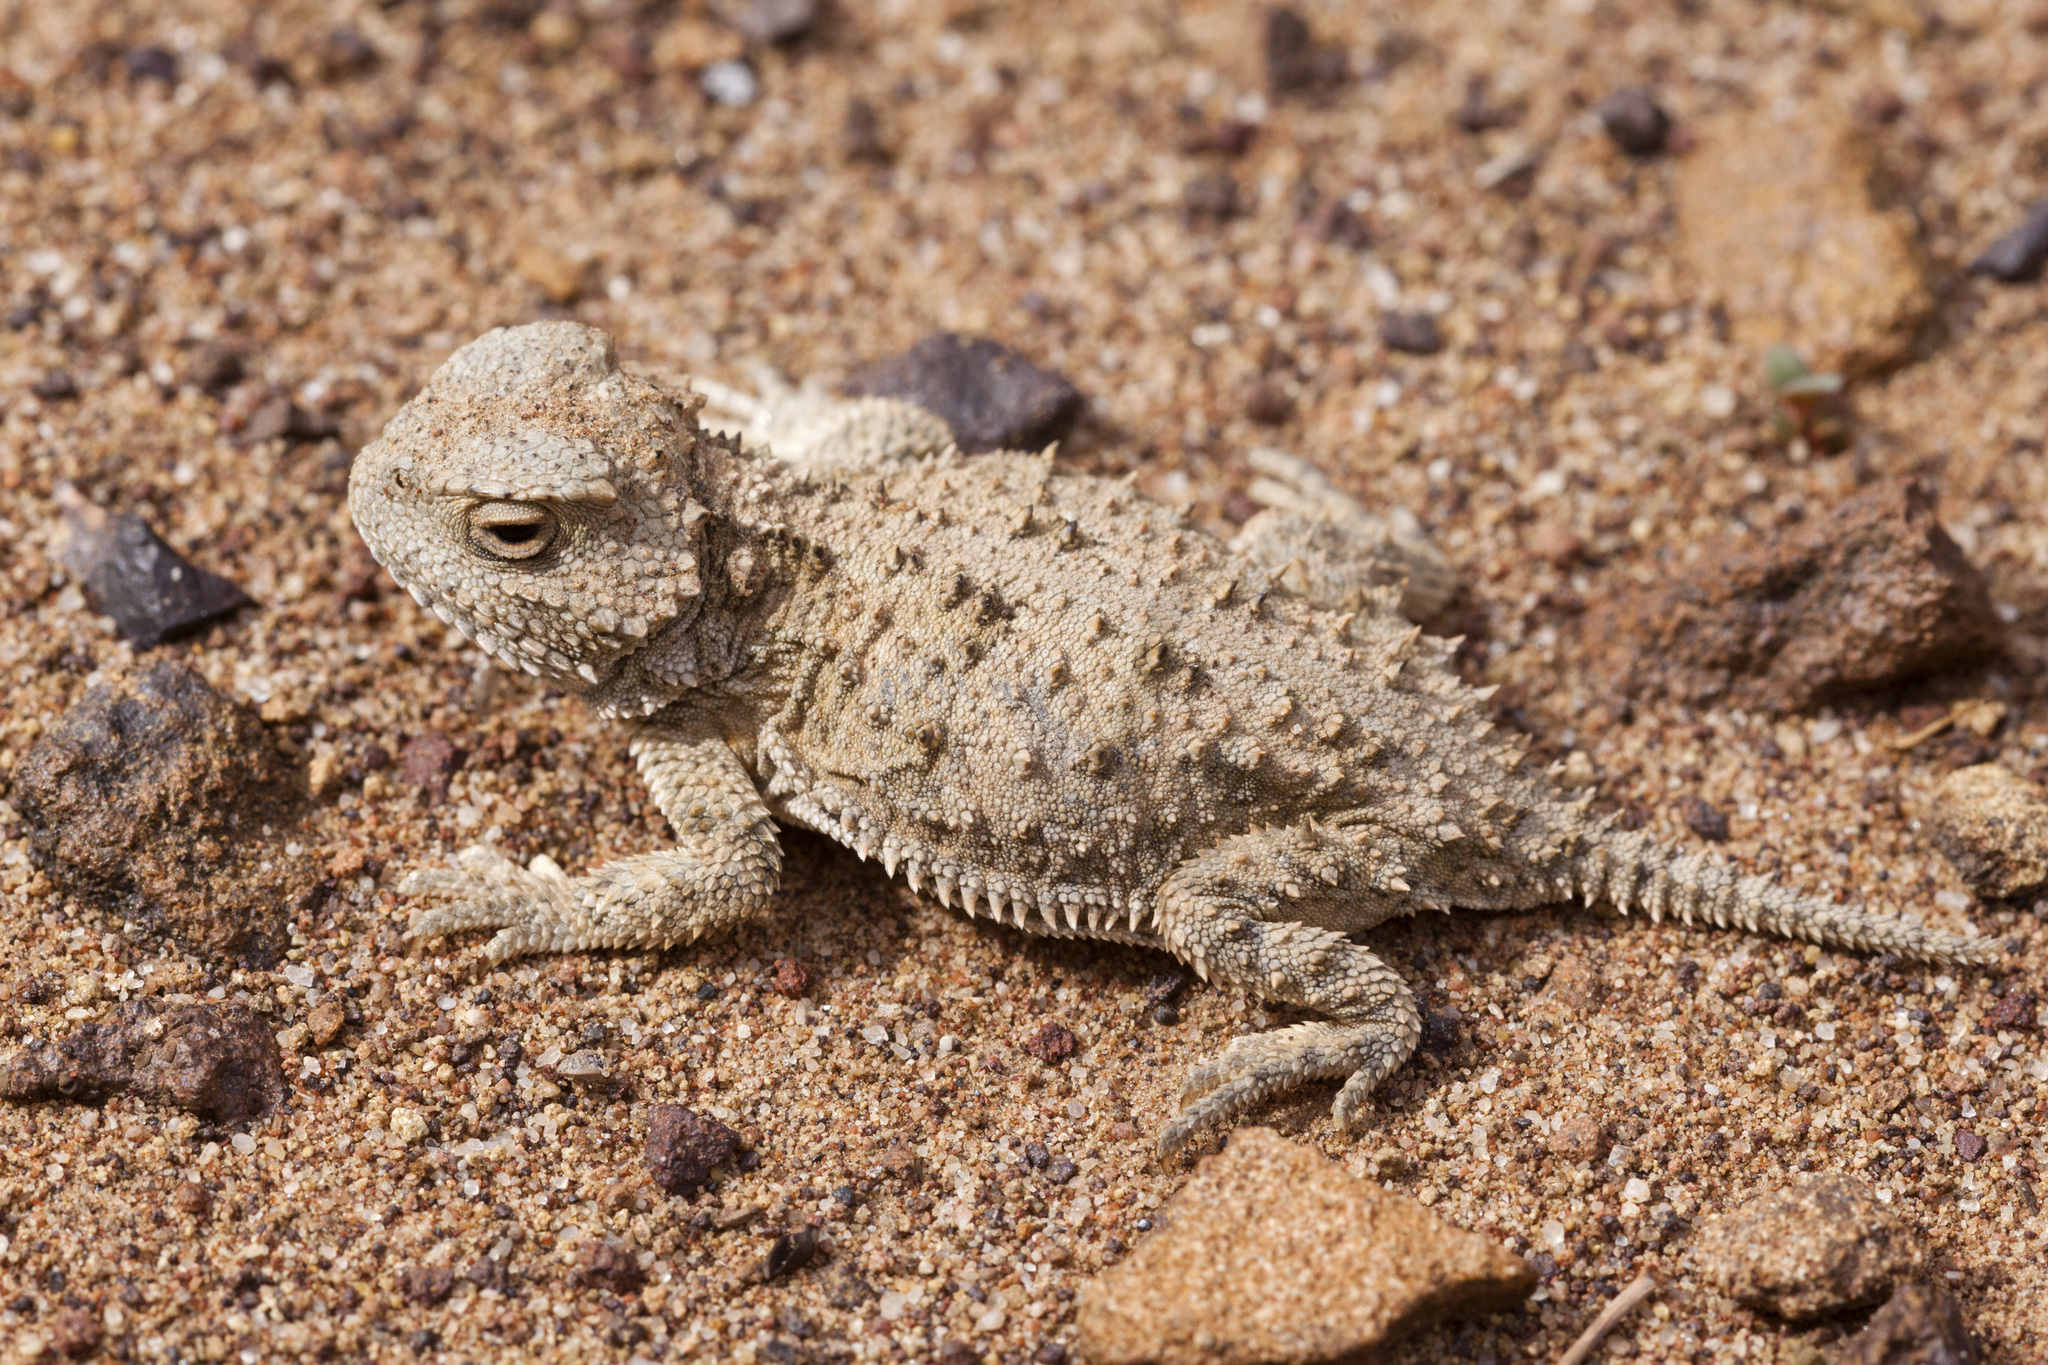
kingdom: Animalia
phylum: Chordata
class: Squamata
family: Phrynosomatidae
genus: Phrynosoma
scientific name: Phrynosoma hernandesi
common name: Greater short-horned lizard
